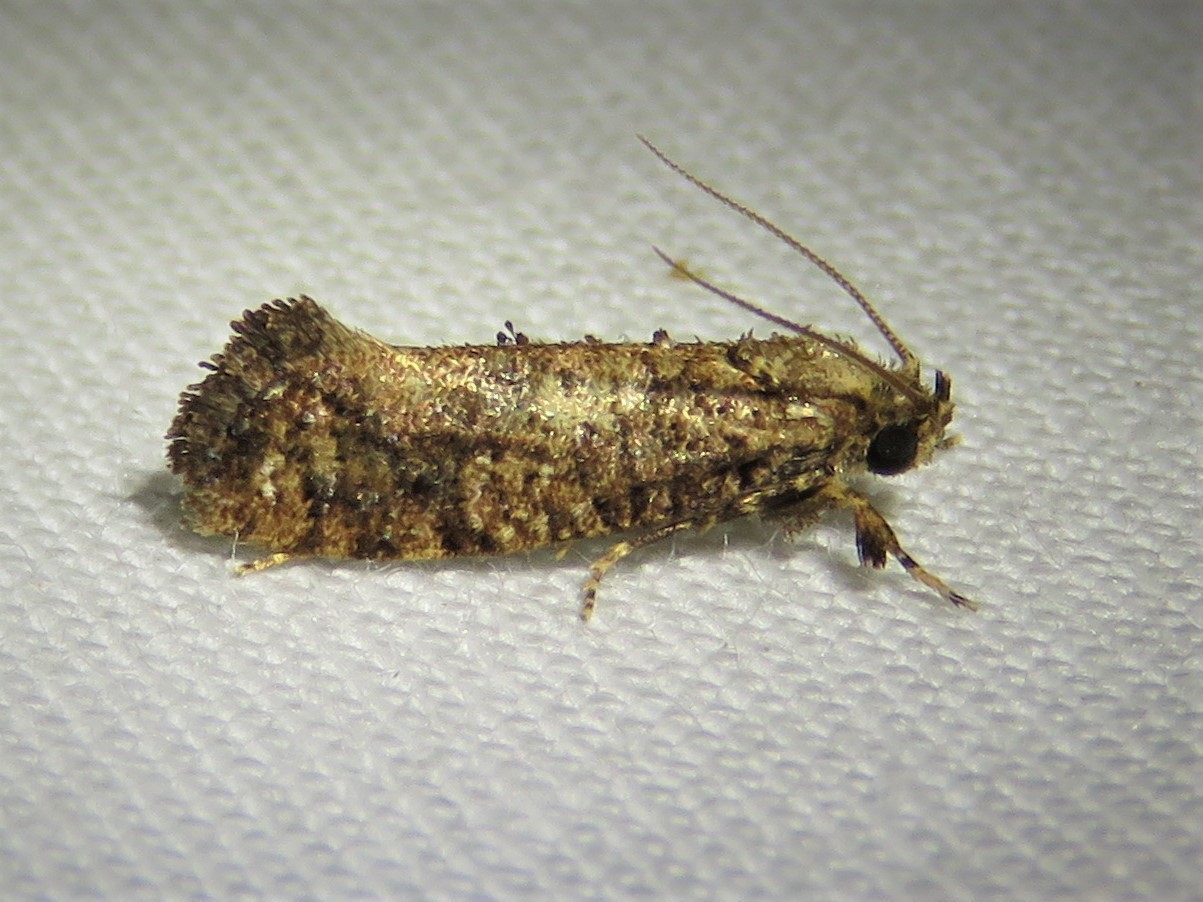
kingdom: Animalia
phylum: Arthropoda
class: Insecta
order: Lepidoptera
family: Tineidae
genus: Acrolophus
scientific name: Acrolophus cressoni
